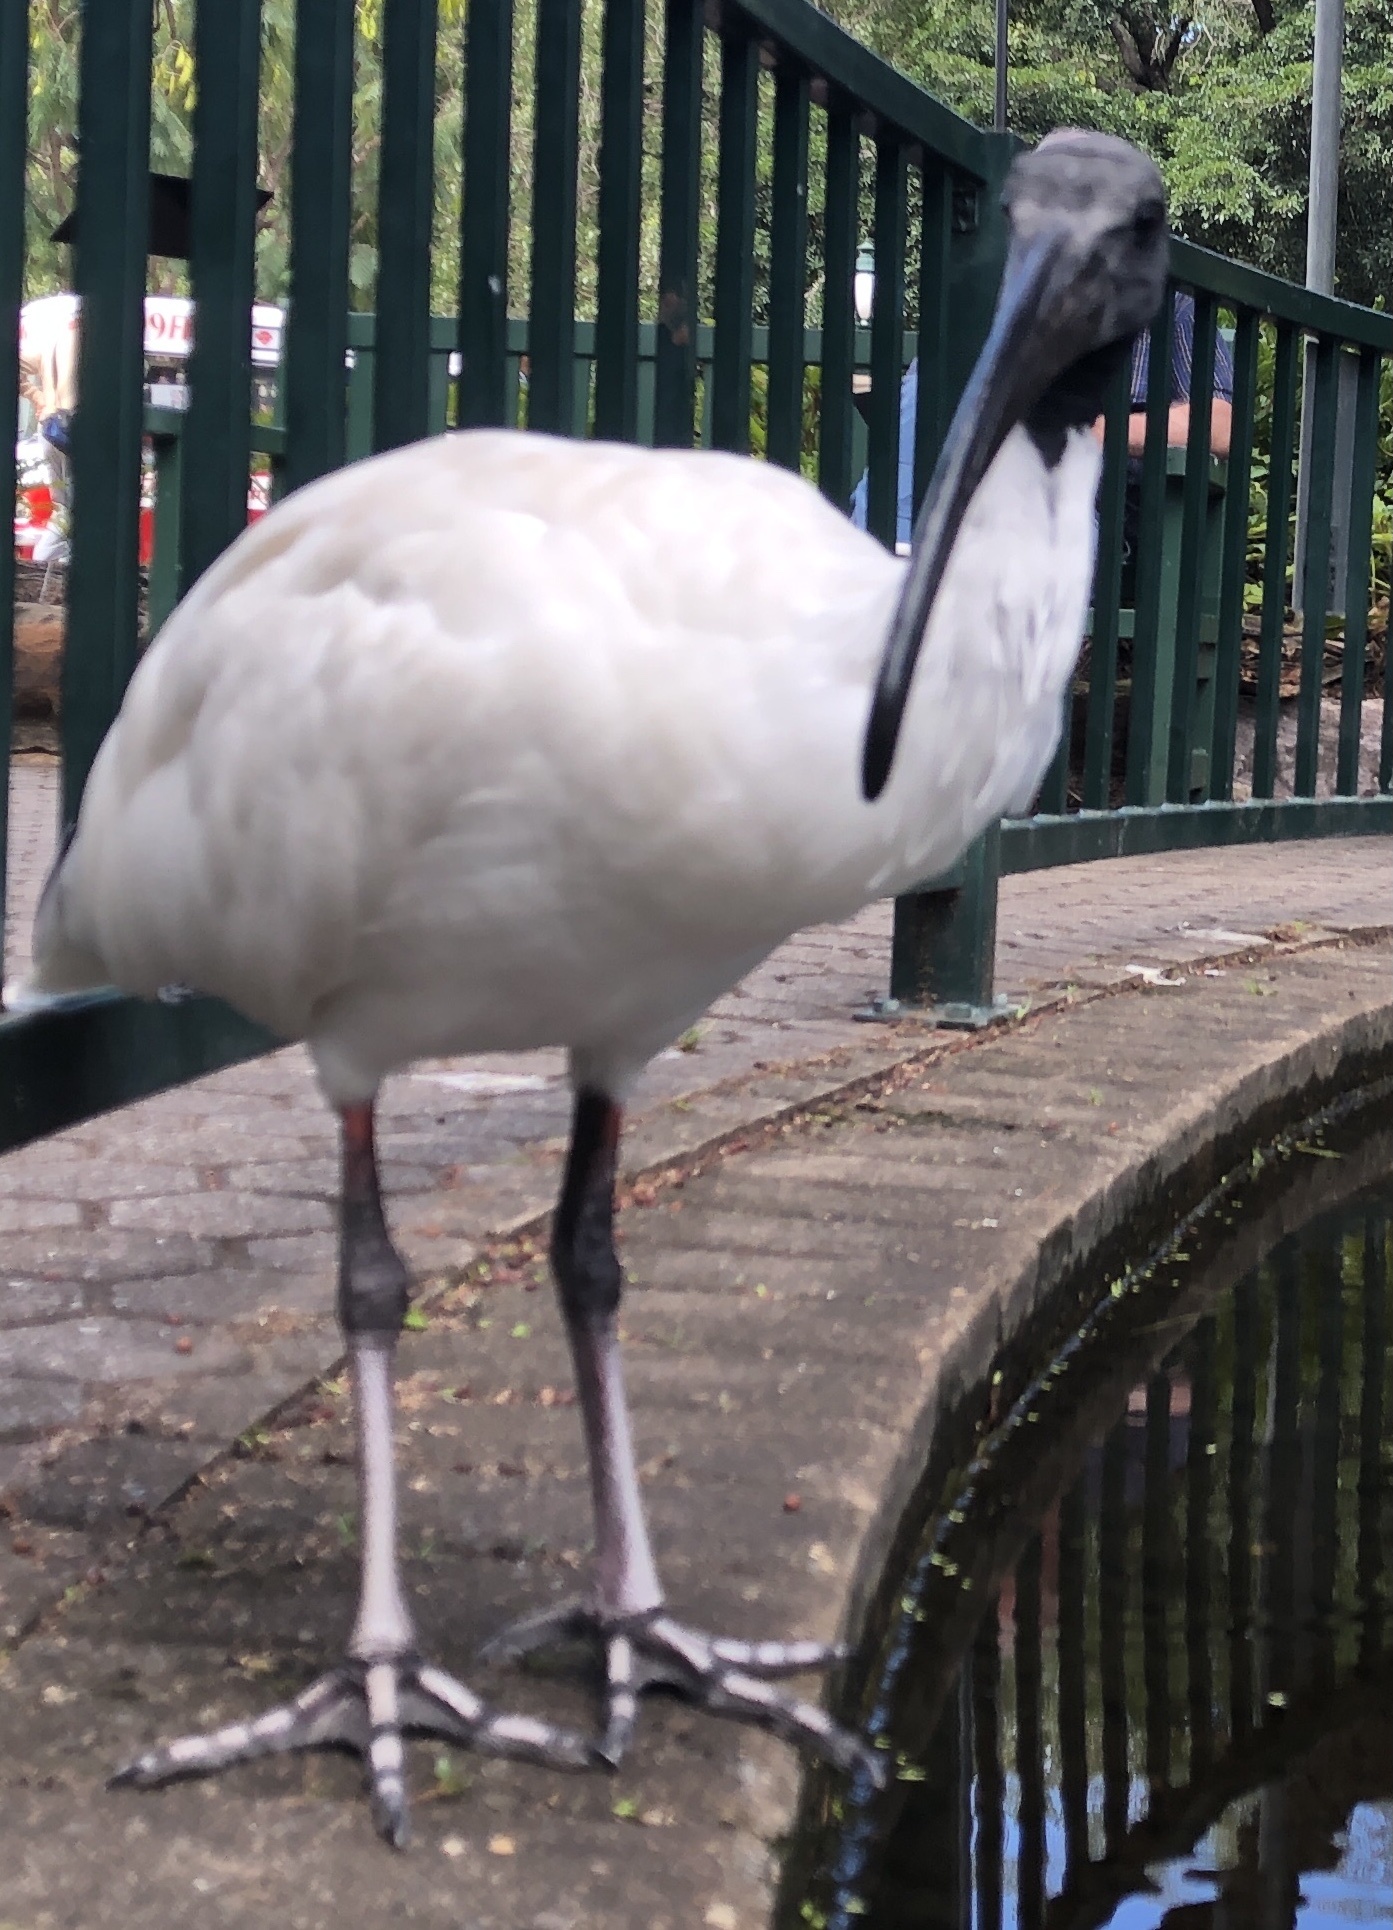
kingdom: Animalia
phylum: Chordata
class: Aves
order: Pelecaniformes
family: Threskiornithidae
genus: Threskiornis
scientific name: Threskiornis molucca
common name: Australian white ibis
